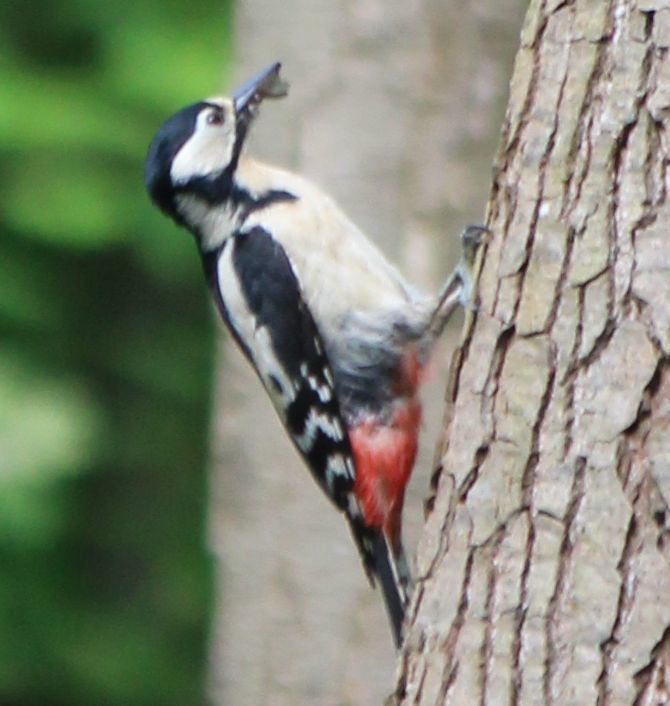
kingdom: Animalia
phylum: Chordata
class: Aves
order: Piciformes
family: Picidae
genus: Dendrocopos
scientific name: Dendrocopos major
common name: Great spotted woodpecker
